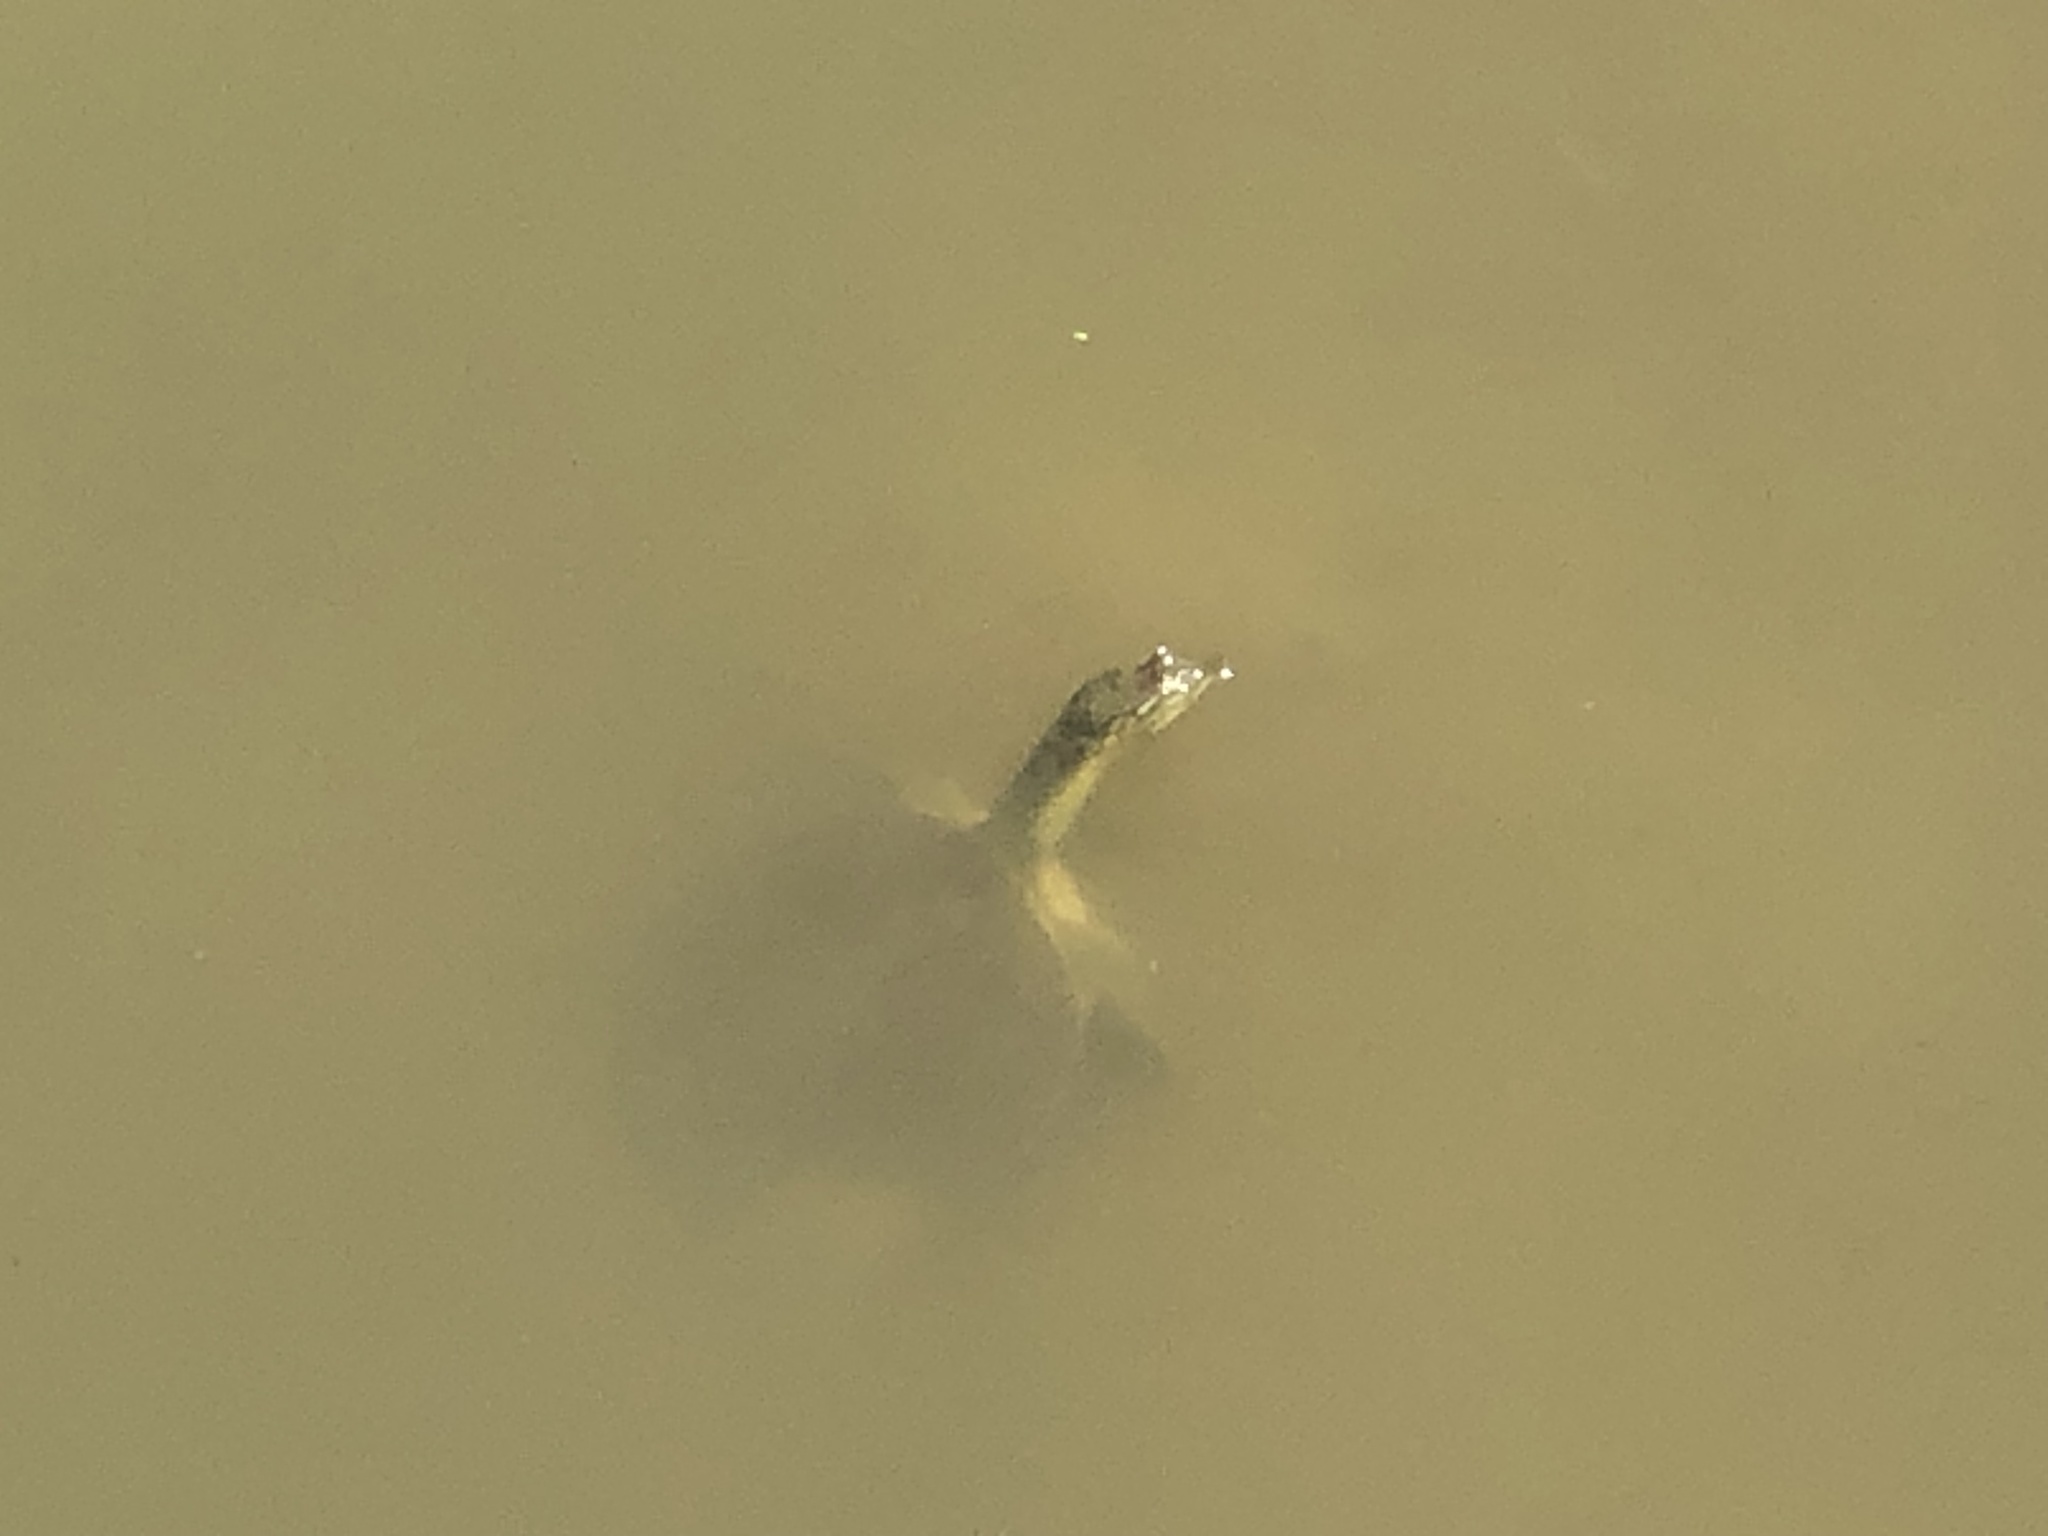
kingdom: Animalia
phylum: Chordata
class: Testudines
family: Trionychidae
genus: Apalone
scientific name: Apalone spinifera
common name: Spiny softshell turtle
